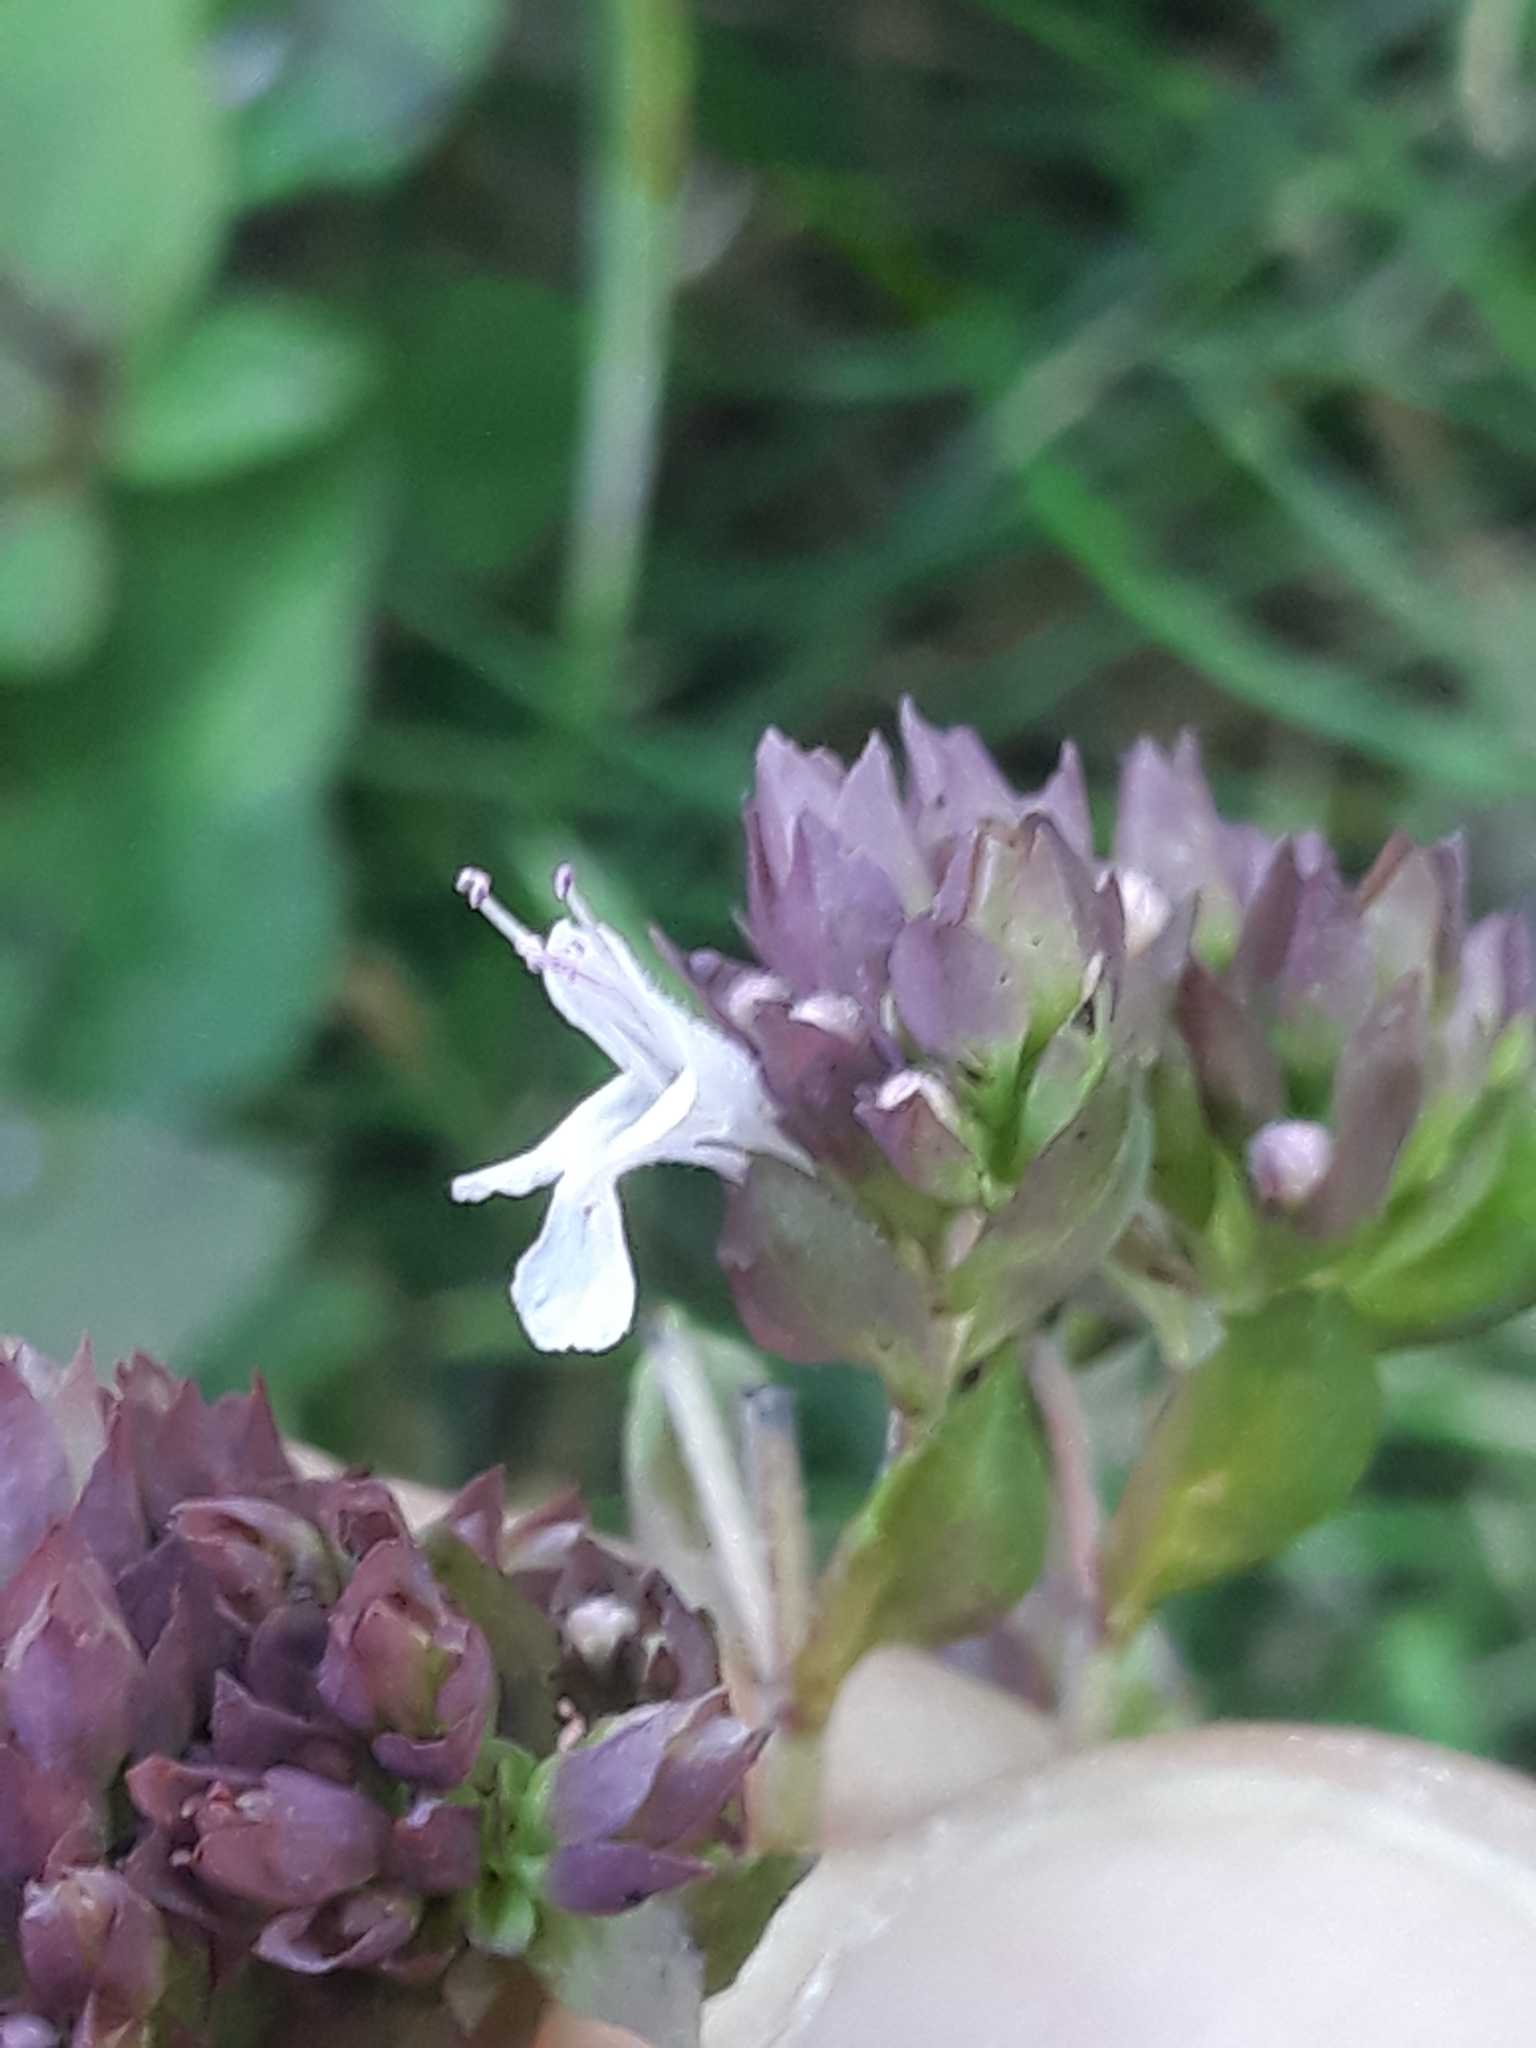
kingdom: Plantae
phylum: Tracheophyta
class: Magnoliopsida
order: Lamiales
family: Lamiaceae
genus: Origanum
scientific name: Origanum vulgare
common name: Wild marjoram
